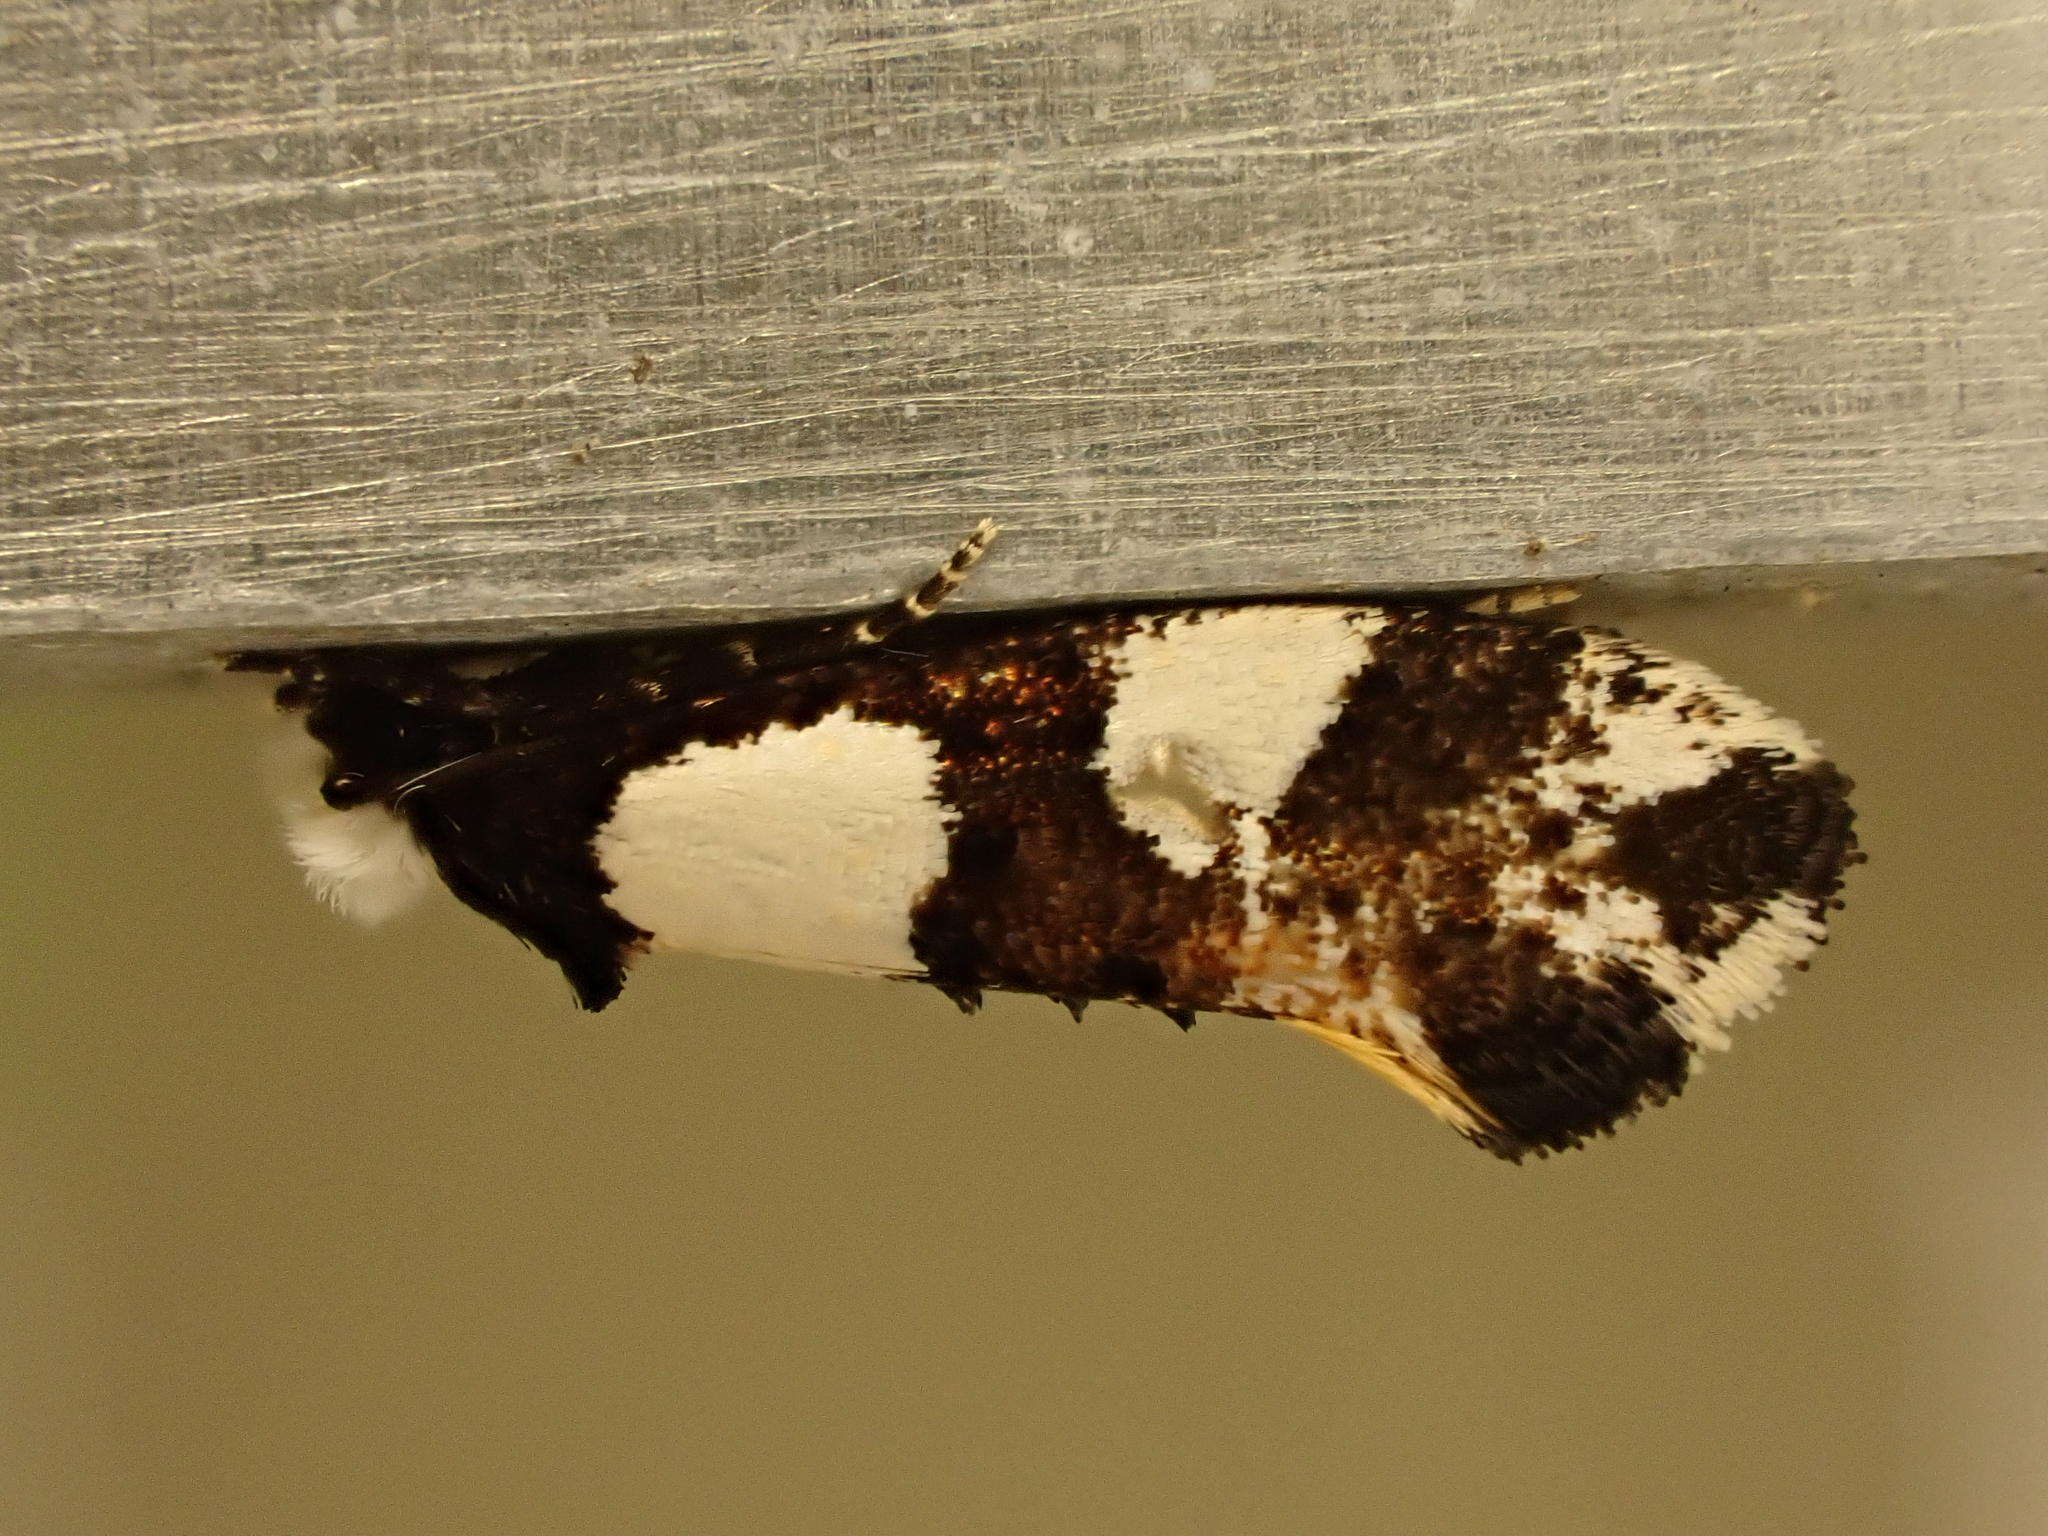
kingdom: Animalia
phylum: Arthropoda
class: Insecta
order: Lepidoptera
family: Tineidae
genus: Monopis
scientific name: Monopis icterogastra
